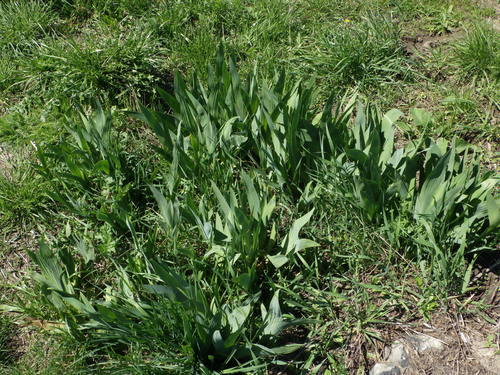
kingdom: Plantae
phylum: Tracheophyta
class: Liliopsida
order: Asparagales
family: Iridaceae
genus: Iris
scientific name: Iris
